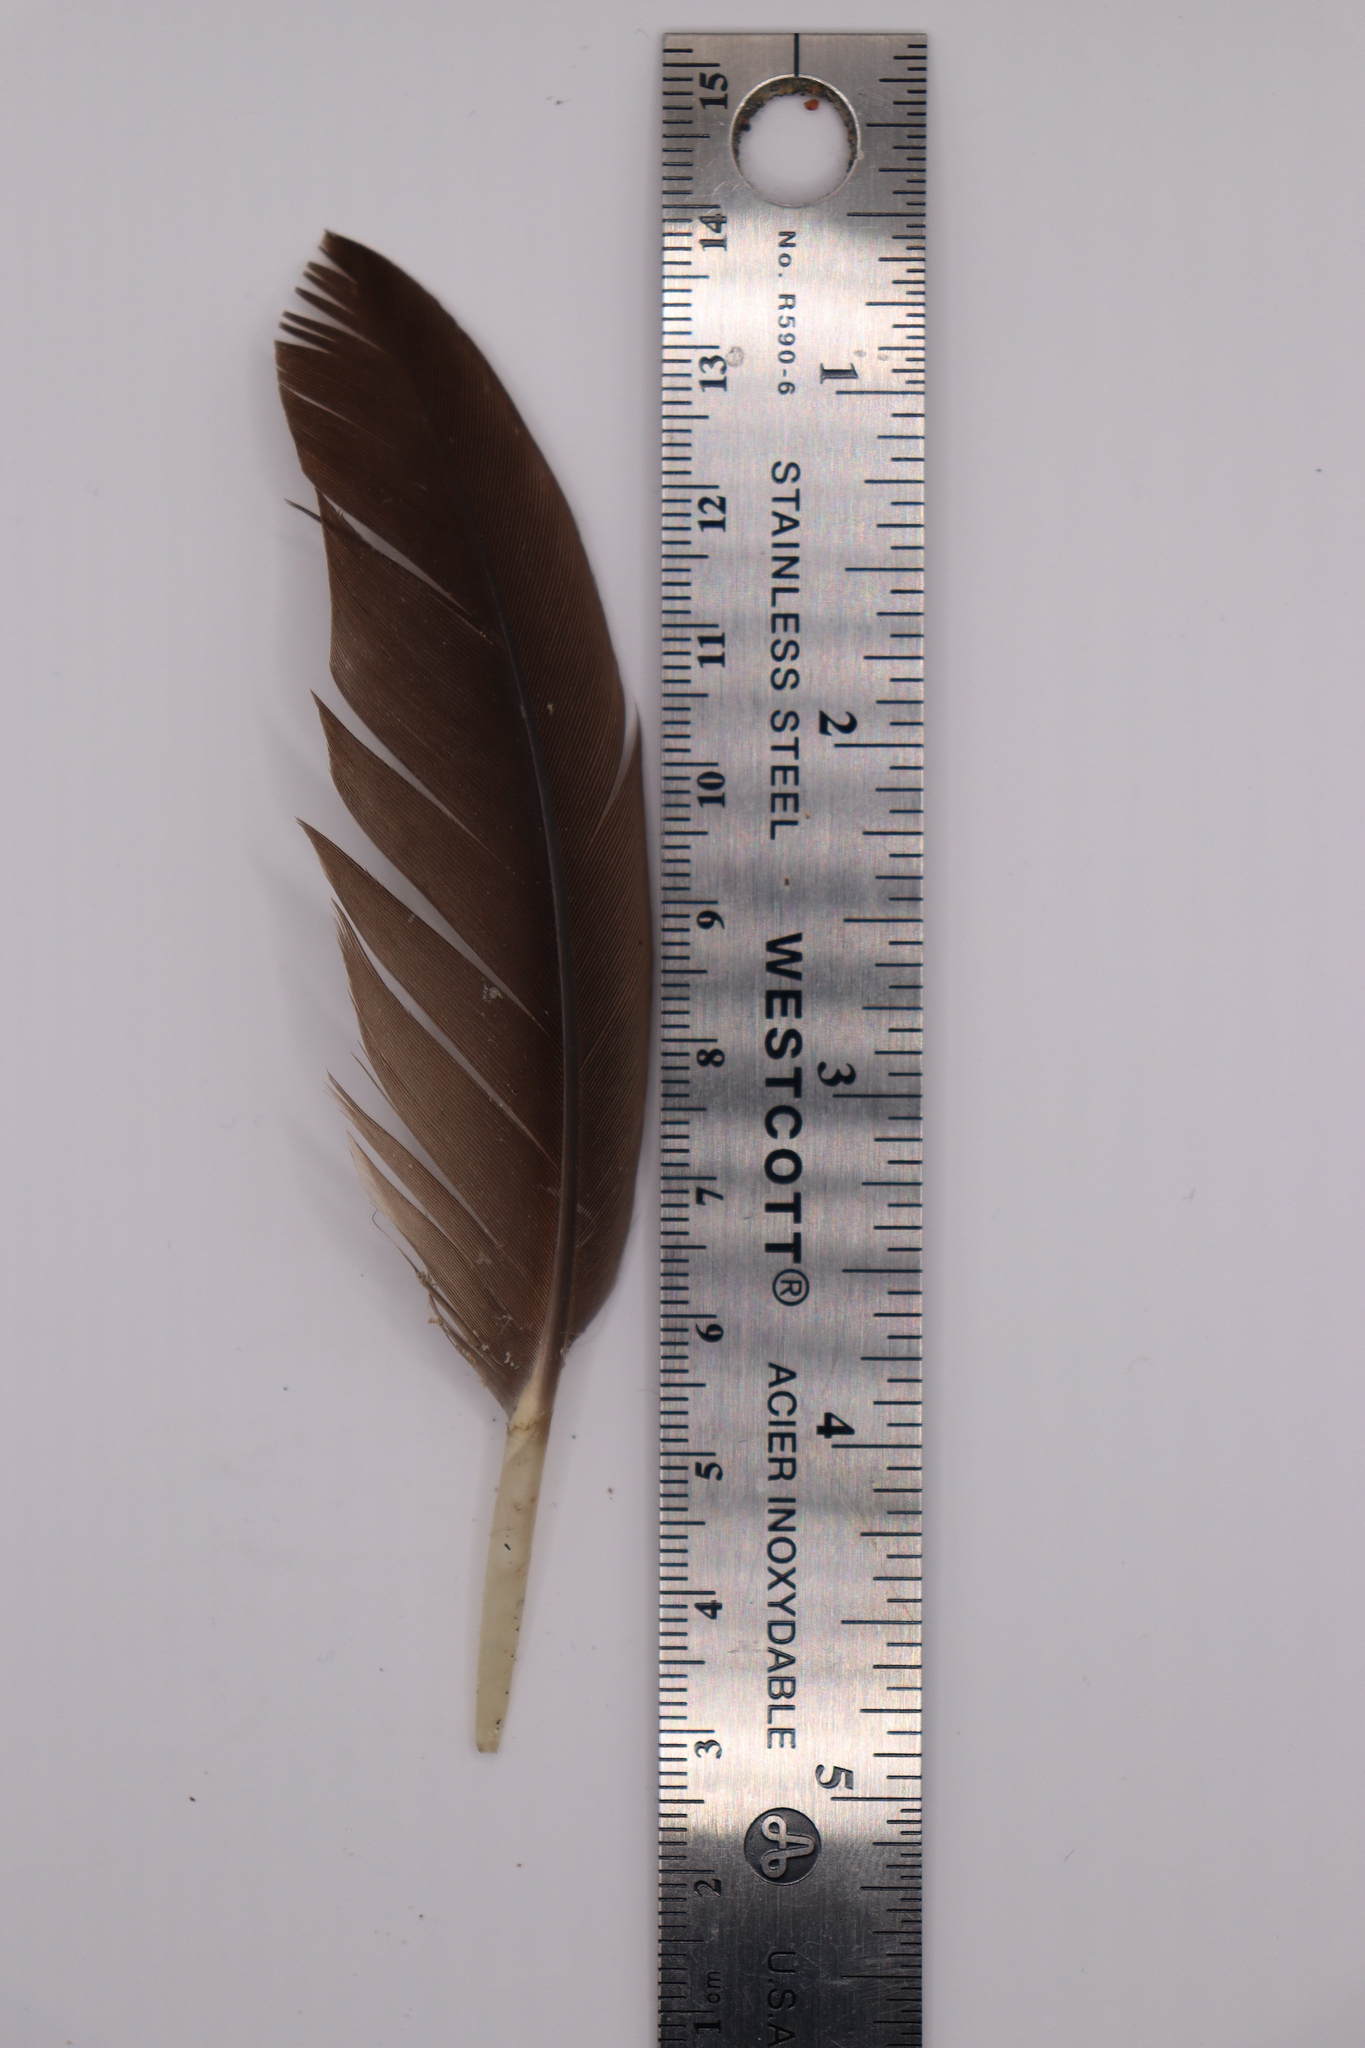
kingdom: Animalia
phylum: Chordata
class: Aves
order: Anseriformes
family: Anatidae
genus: Branta
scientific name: Branta canadensis
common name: Canada goose
